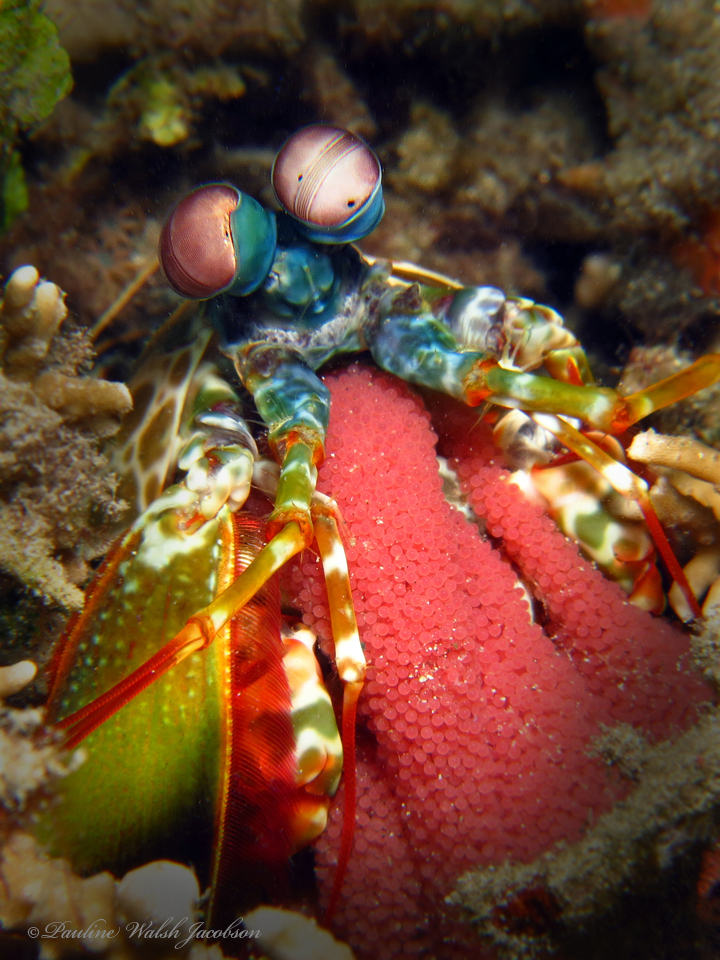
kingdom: Animalia
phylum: Arthropoda
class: Malacostraca
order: Stomatopoda
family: Odontodactylidae
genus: Odontodactylus
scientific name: Odontodactylus scyllarus
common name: Peacock mantis shrimp
